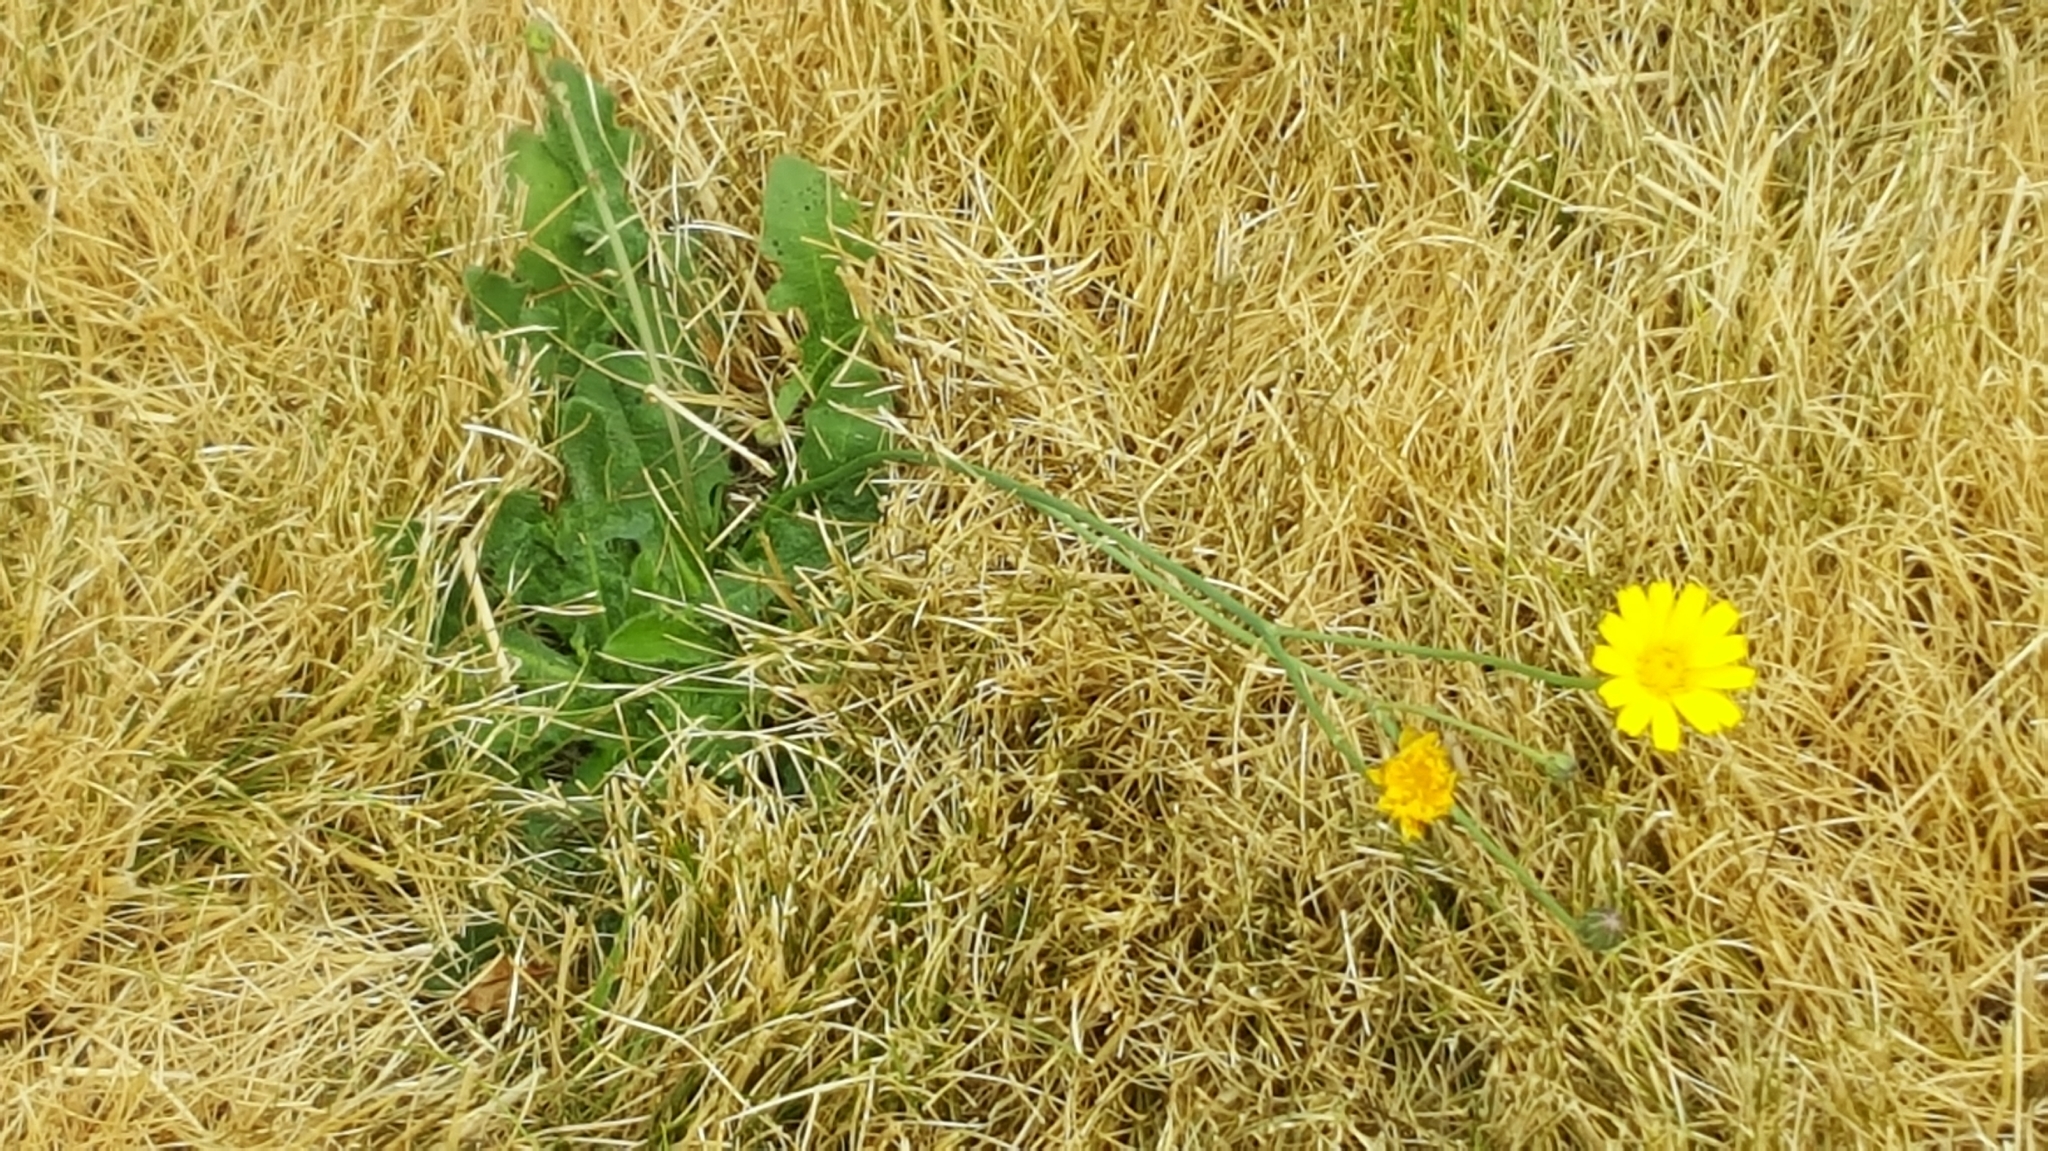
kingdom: Plantae
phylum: Tracheophyta
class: Magnoliopsida
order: Asterales
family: Asteraceae
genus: Hypochaeris
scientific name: Hypochaeris radicata
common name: Flatweed
